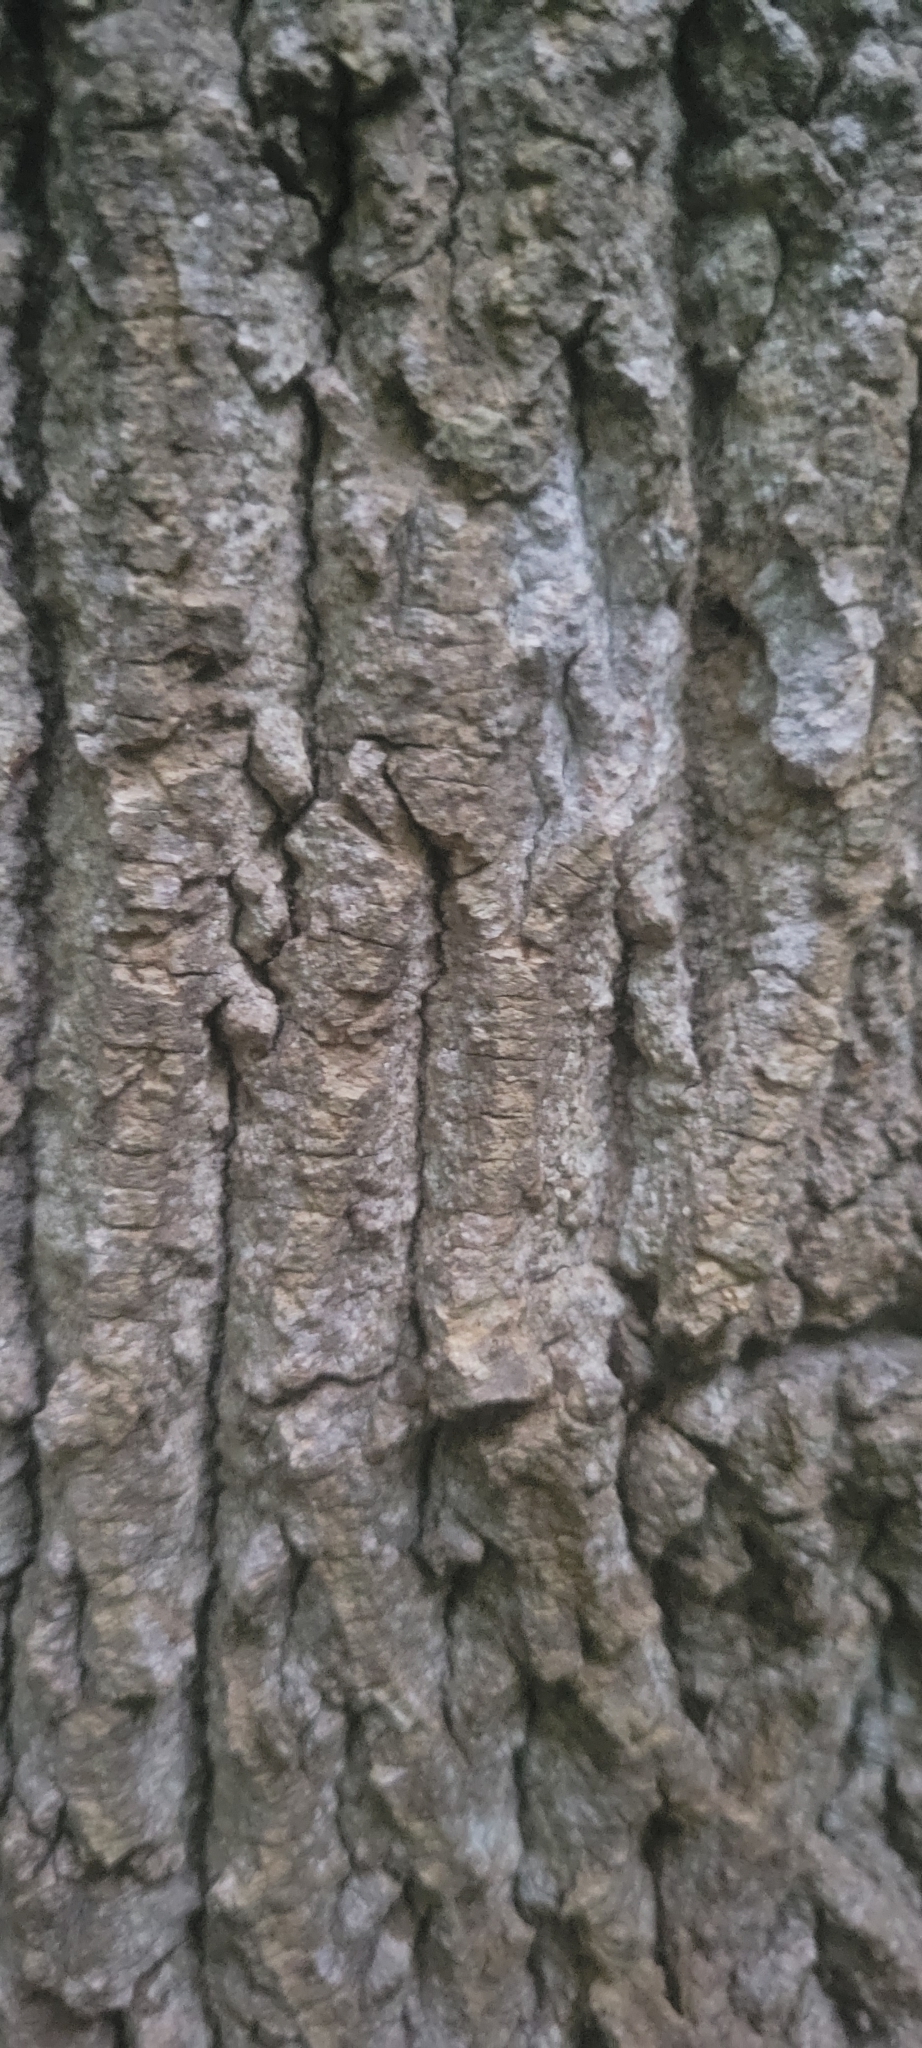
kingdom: Plantae
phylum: Tracheophyta
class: Magnoliopsida
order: Magnoliales
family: Magnoliaceae
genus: Liriodendron
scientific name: Liriodendron tulipifera
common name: Tulip tree
